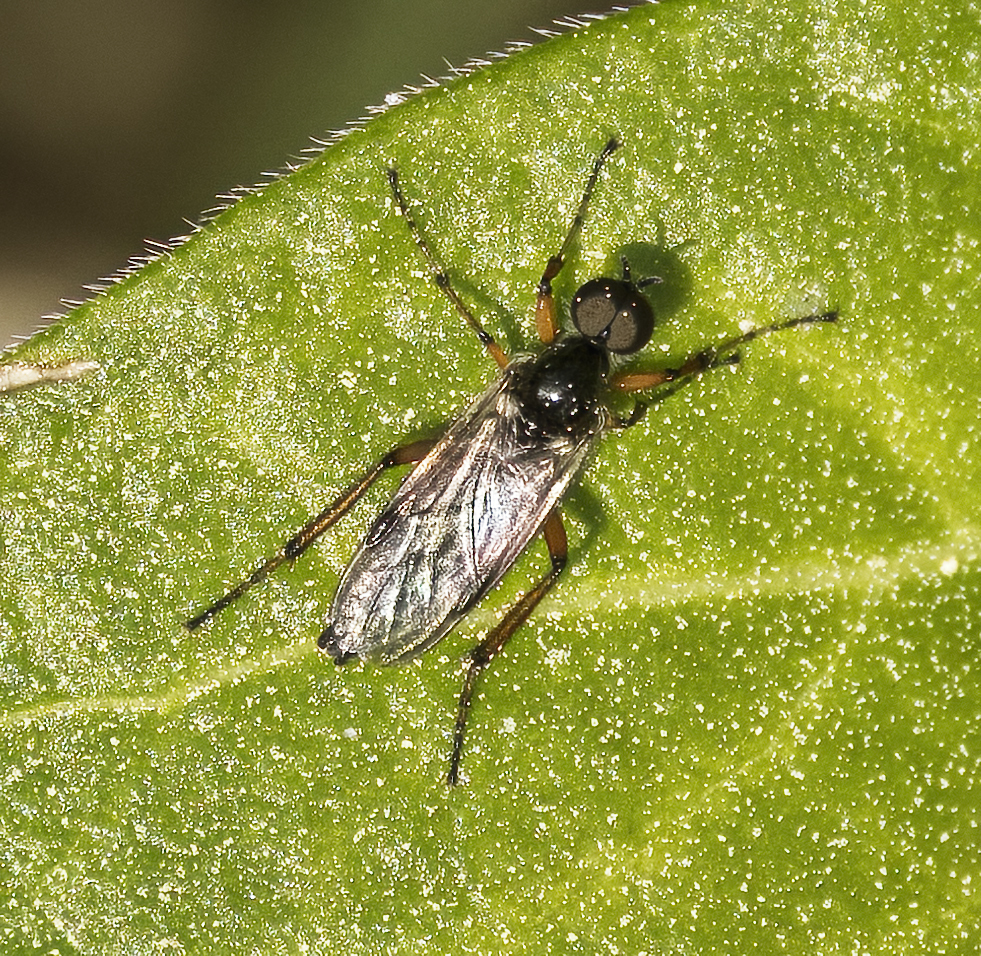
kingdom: Animalia
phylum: Arthropoda
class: Insecta
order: Diptera
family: Bibionidae
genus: Bibio
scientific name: Bibio articulatus
